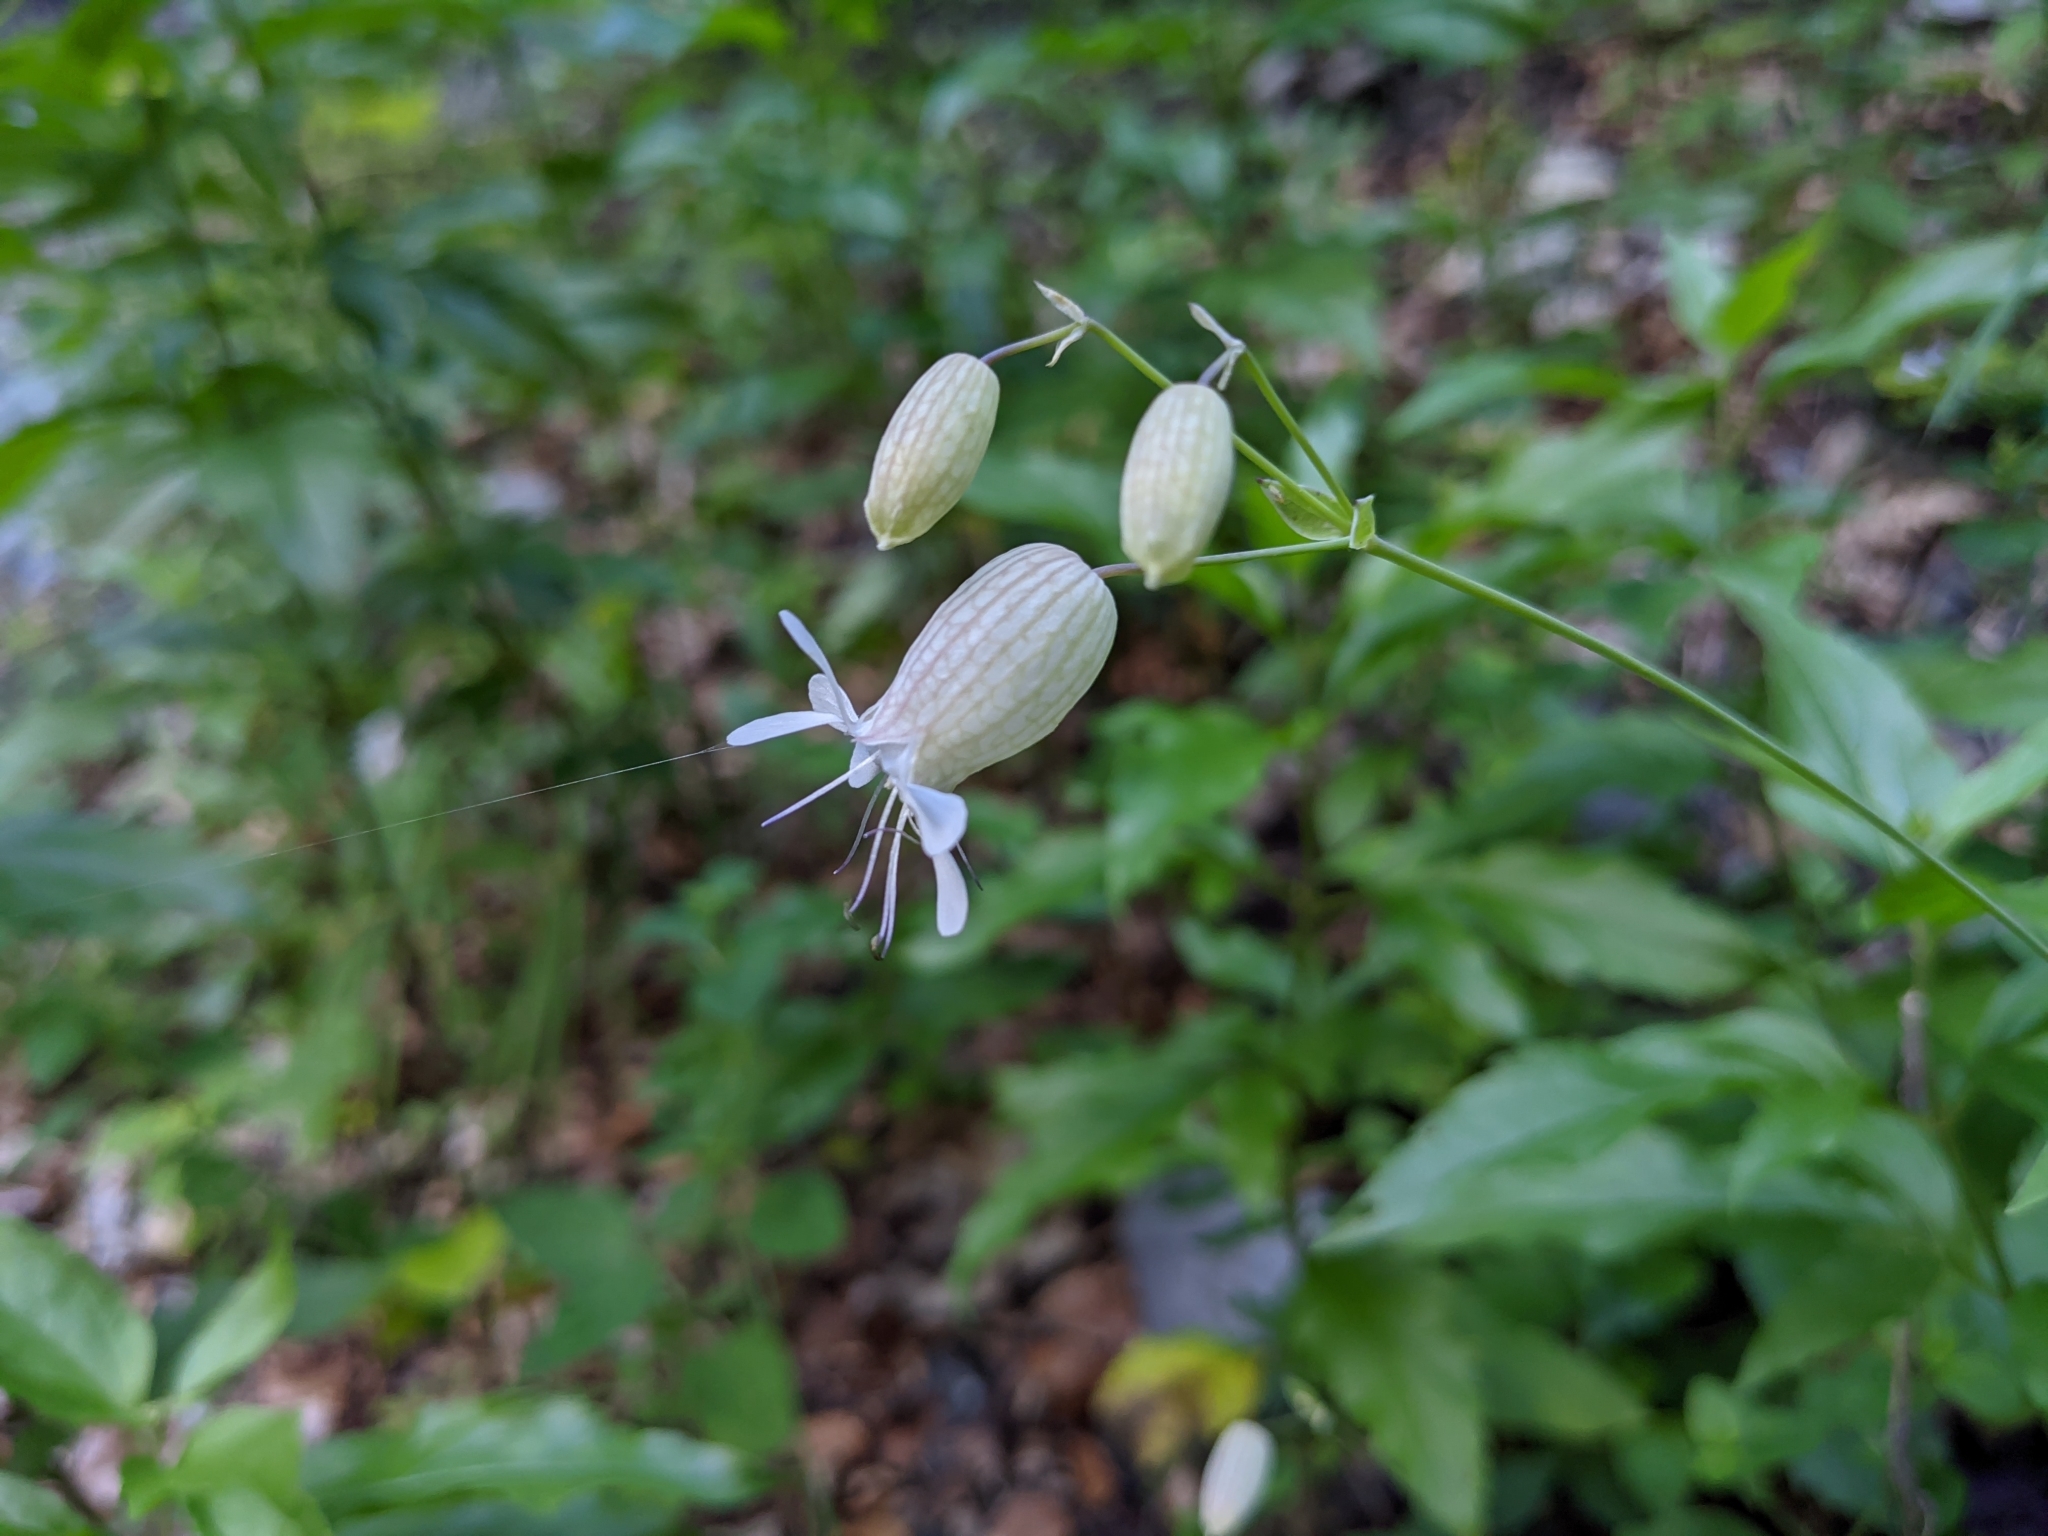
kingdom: Plantae
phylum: Tracheophyta
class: Magnoliopsida
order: Caryophyllales
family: Caryophyllaceae
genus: Silene
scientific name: Silene vulgaris
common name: Bladder campion
